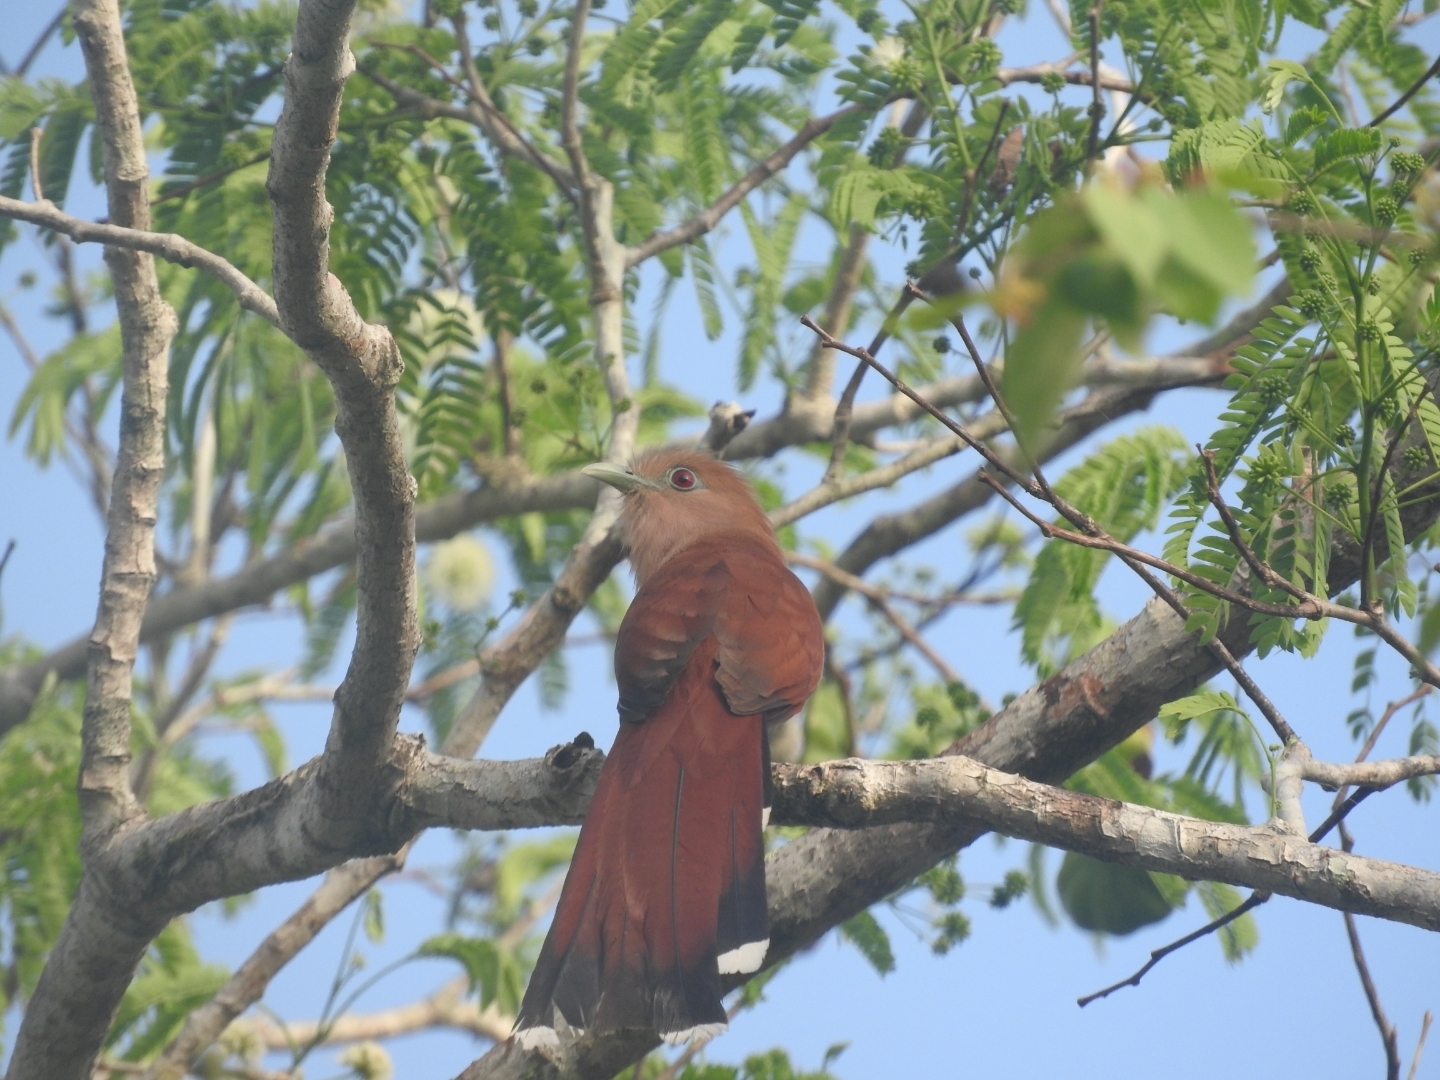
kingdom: Animalia
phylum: Chordata
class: Aves
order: Cuculiformes
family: Cuculidae
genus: Piaya
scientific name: Piaya cayana
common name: Squirrel cuckoo
